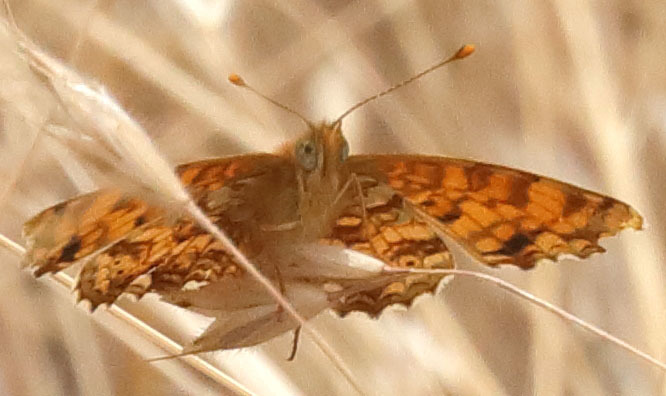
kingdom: Animalia
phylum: Arthropoda
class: Insecta
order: Lepidoptera
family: Nymphalidae
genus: Eresia
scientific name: Eresia aveyrona
